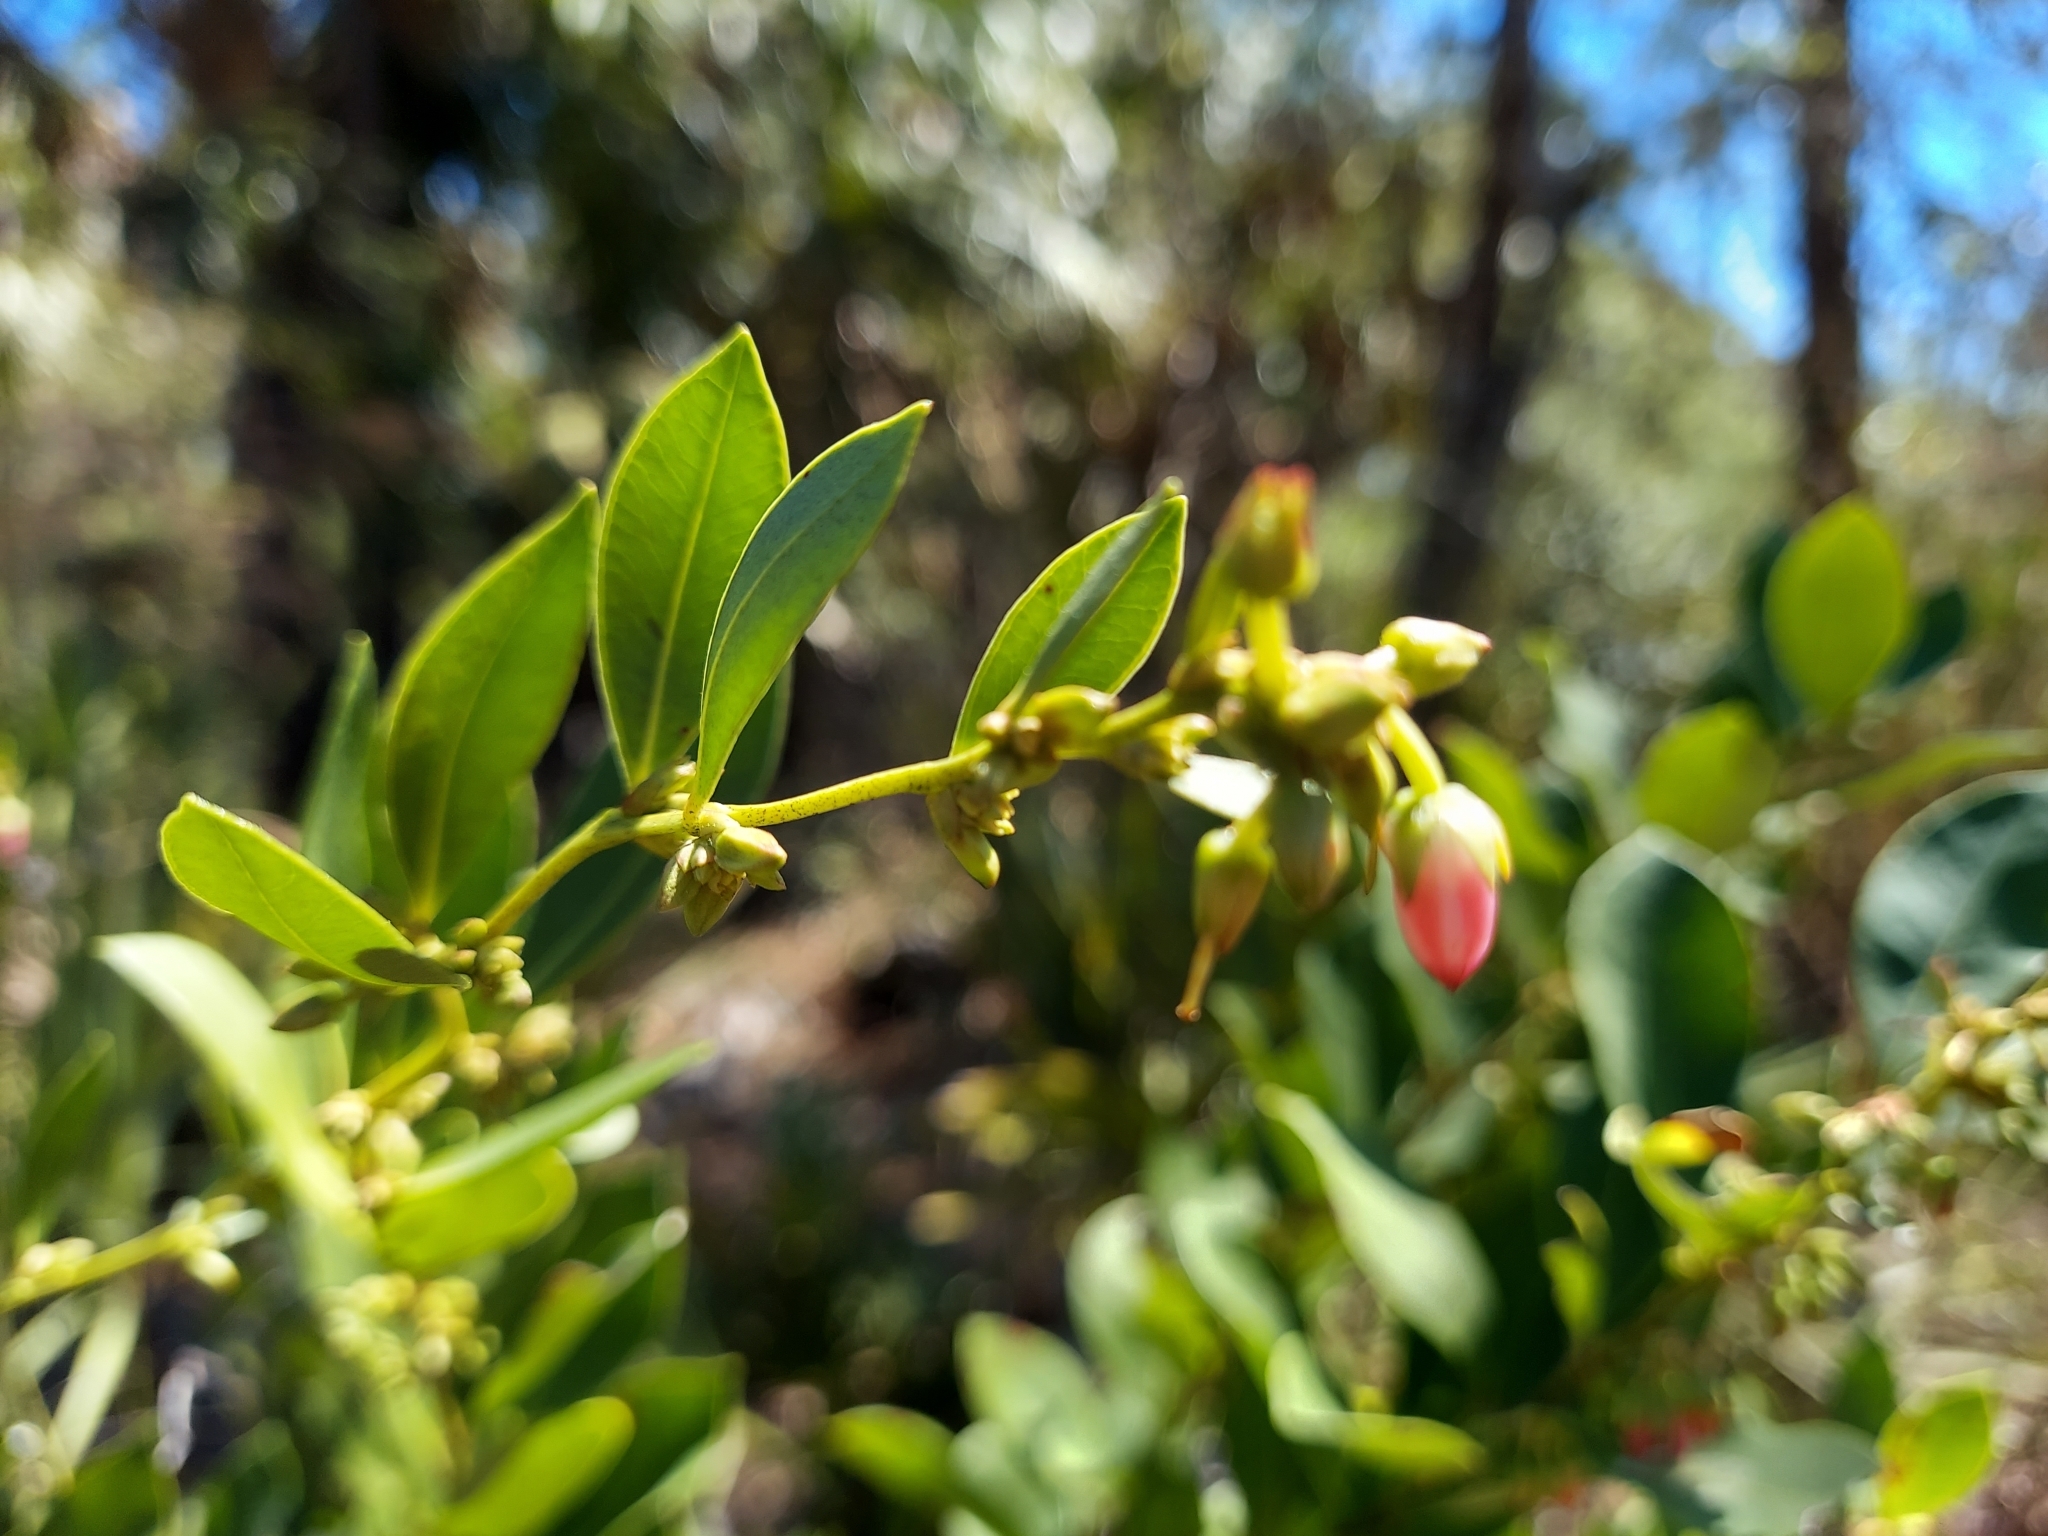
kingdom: Plantae
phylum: Tracheophyta
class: Magnoliopsida
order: Ericales
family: Ericaceae
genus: Lyonia
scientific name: Lyonia lucida
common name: Fetterbush
